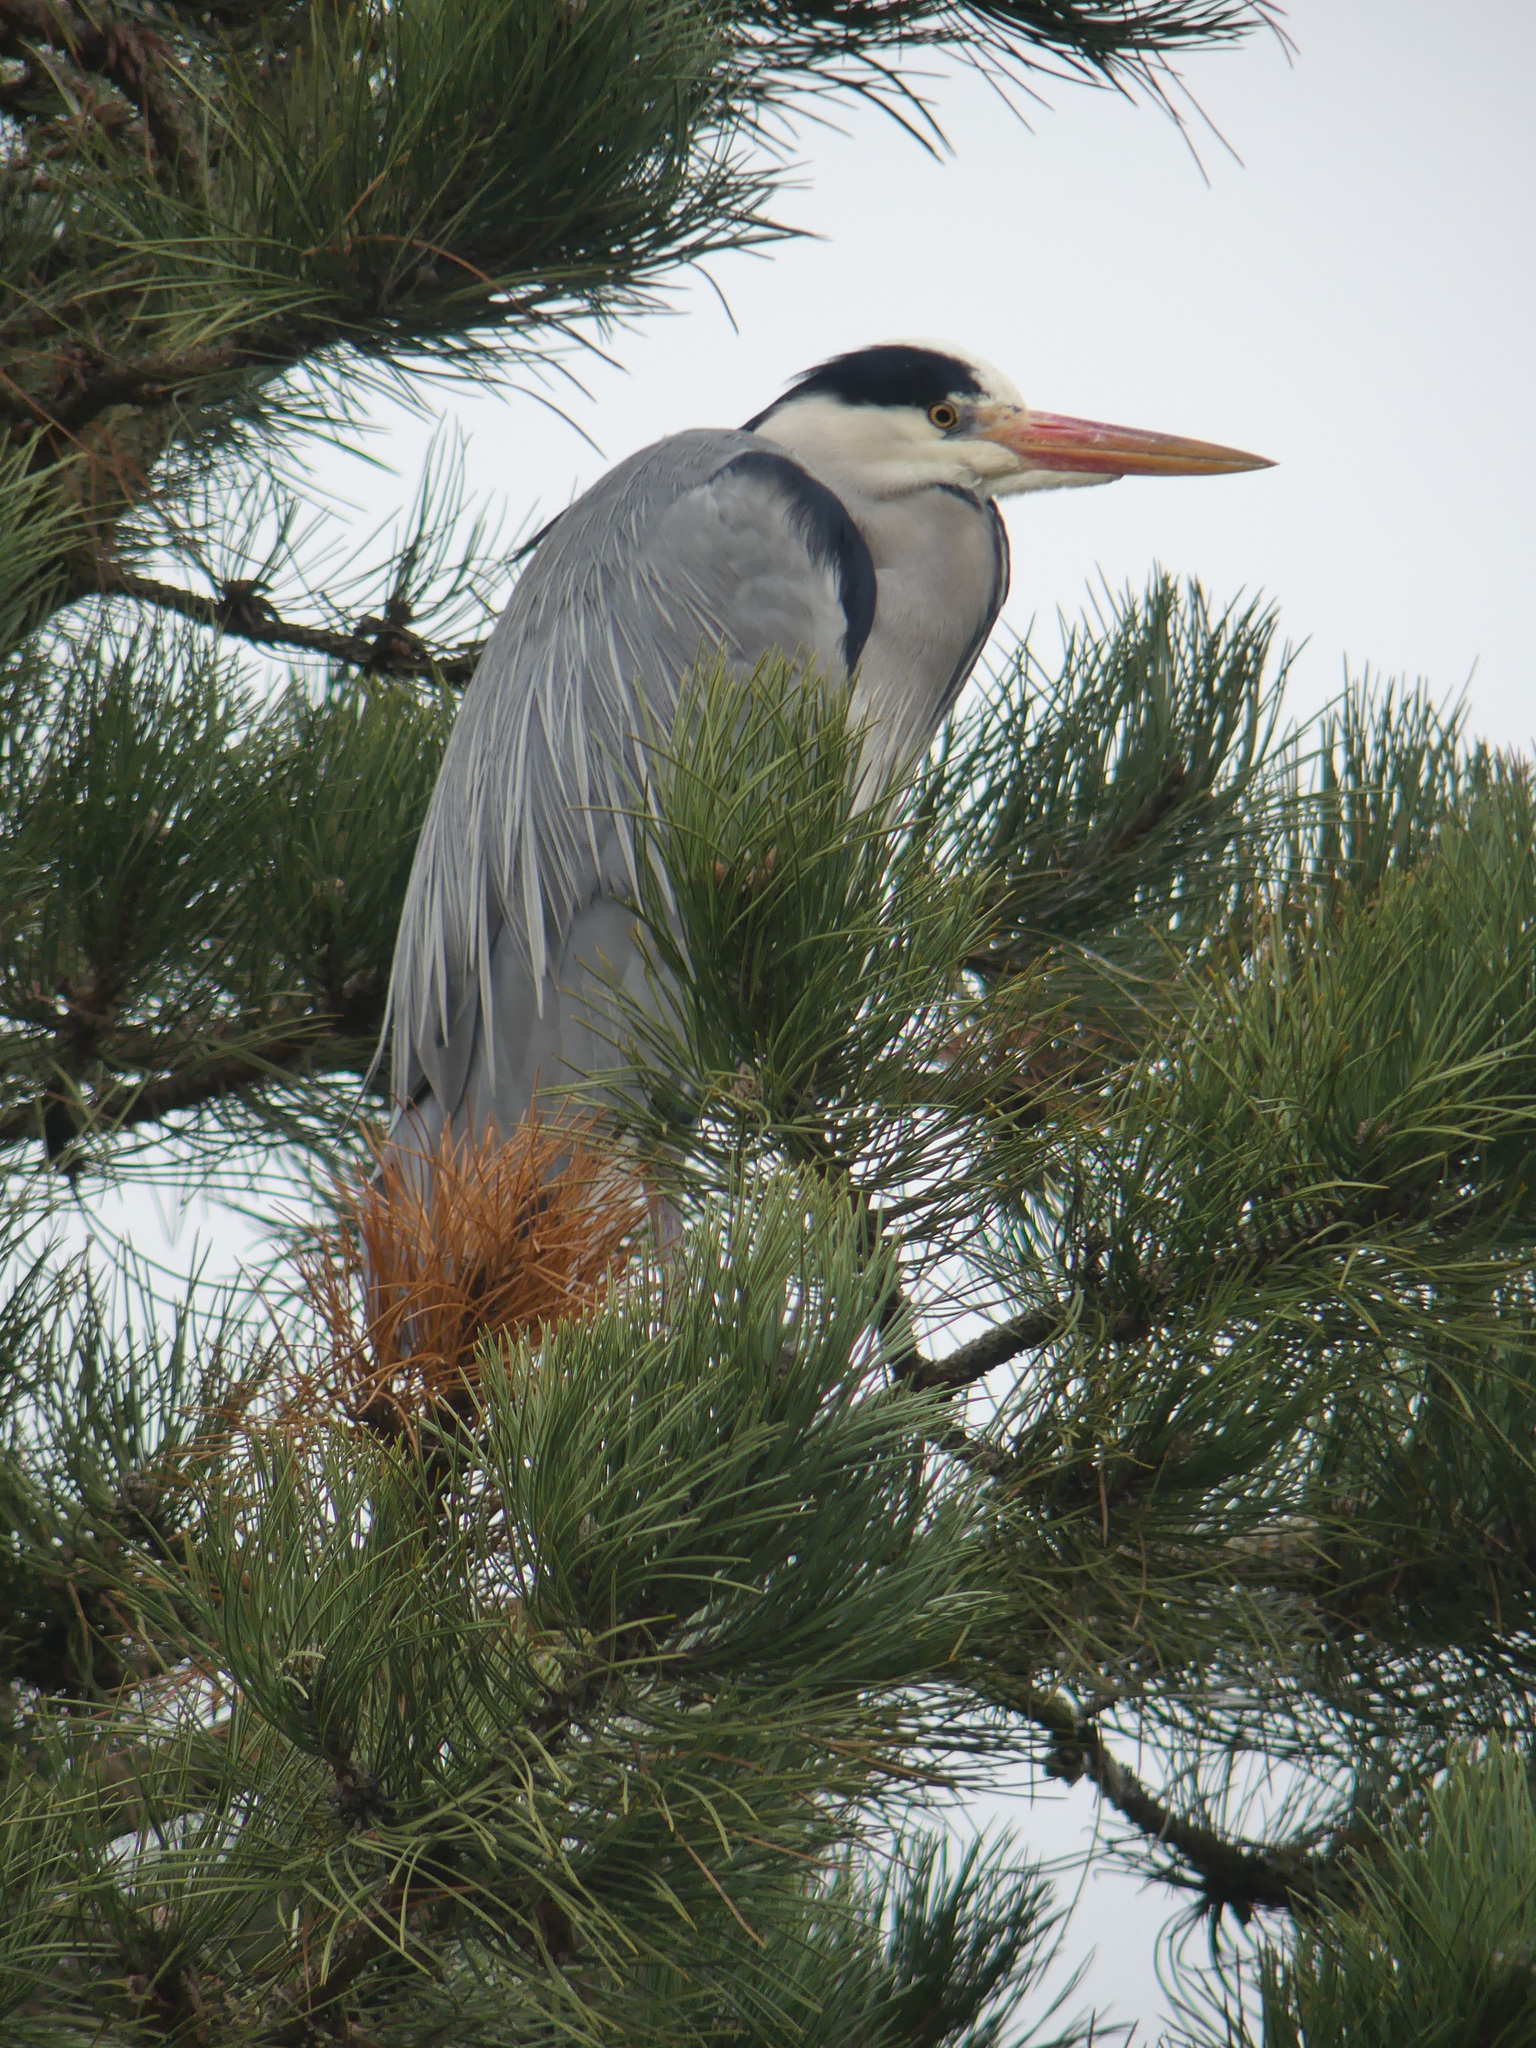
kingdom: Animalia
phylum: Chordata
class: Aves
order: Pelecaniformes
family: Ardeidae
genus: Ardea
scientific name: Ardea cinerea
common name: Grey heron
